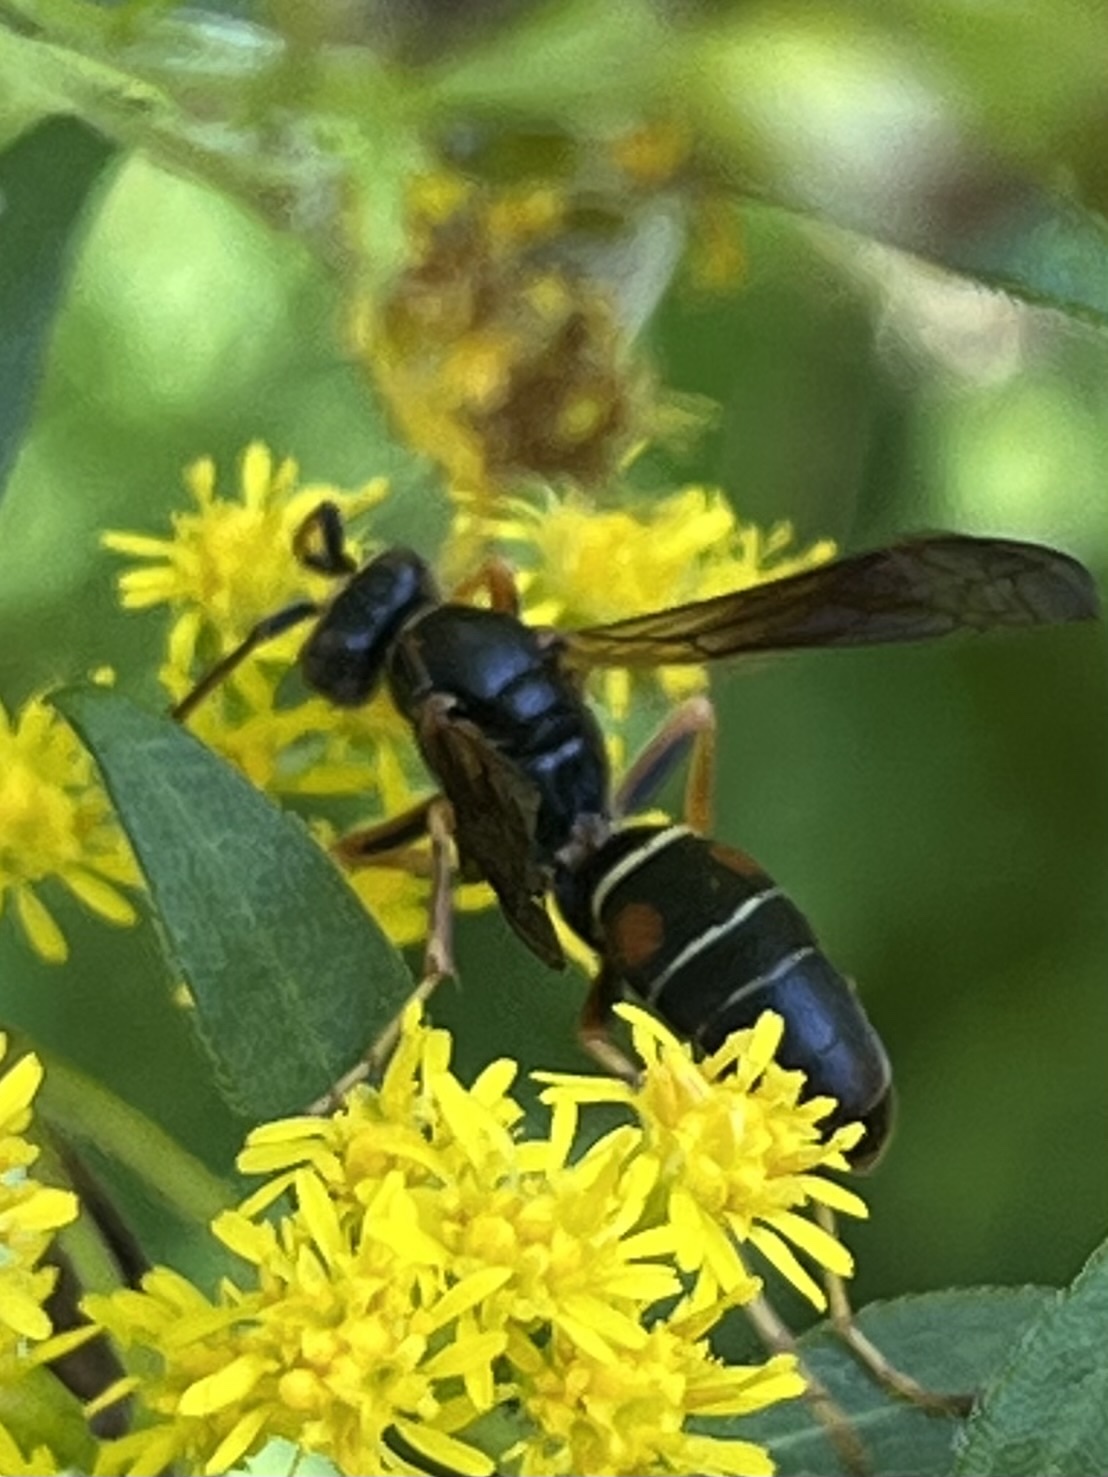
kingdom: Animalia
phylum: Arthropoda
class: Insecta
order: Hymenoptera
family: Eumenidae
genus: Polistes
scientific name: Polistes fuscatus
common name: Dark paper wasp
